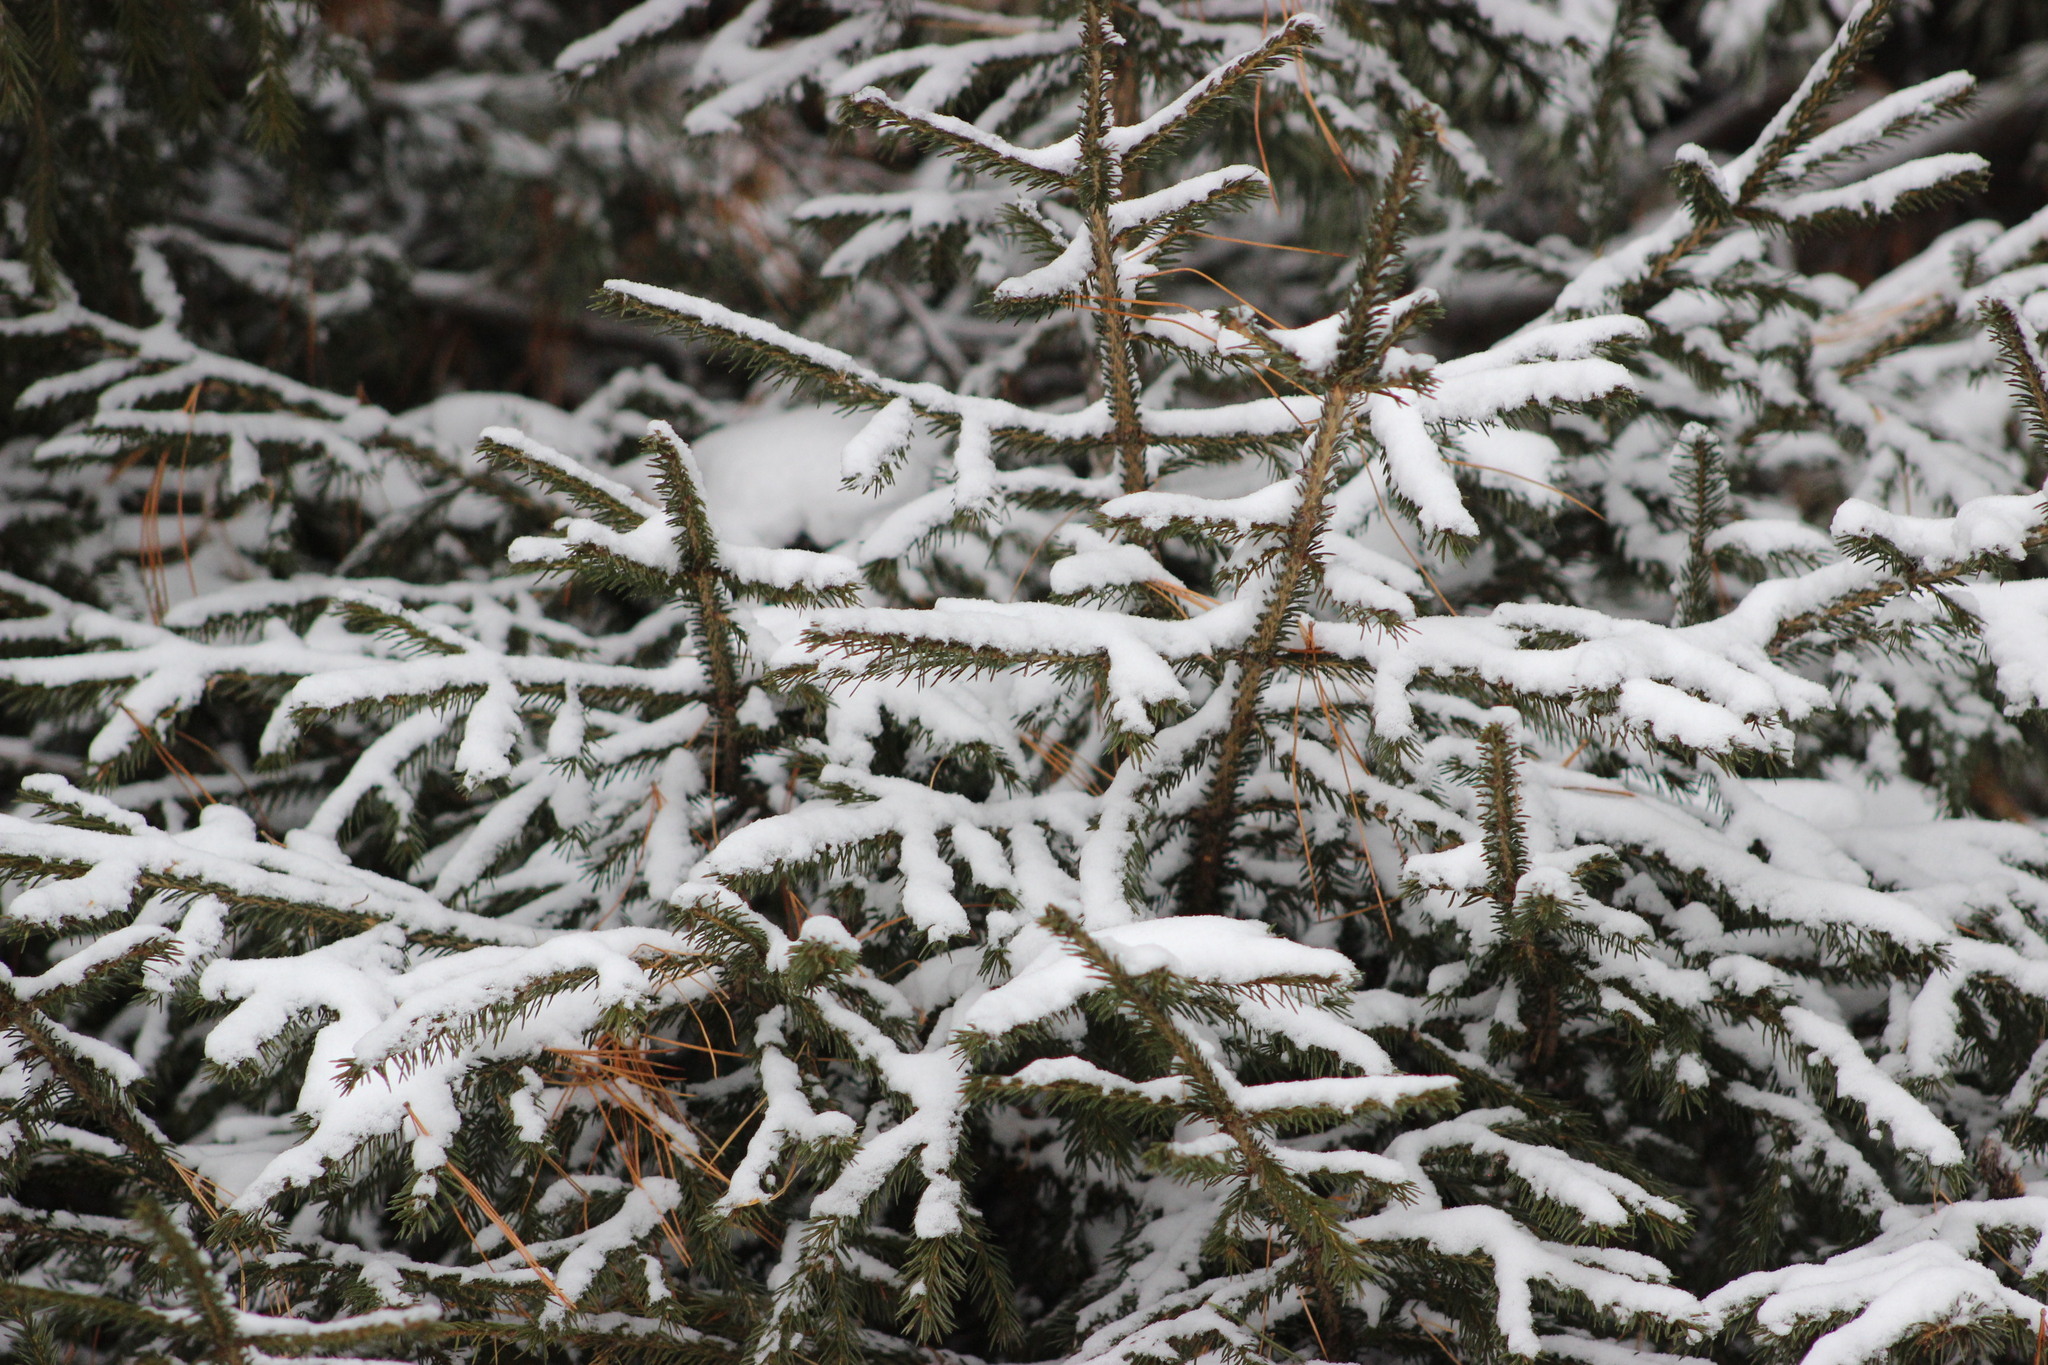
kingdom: Plantae
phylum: Tracheophyta
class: Pinopsida
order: Pinales
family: Pinaceae
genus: Picea
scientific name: Picea obovata
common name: Siberian spruce
